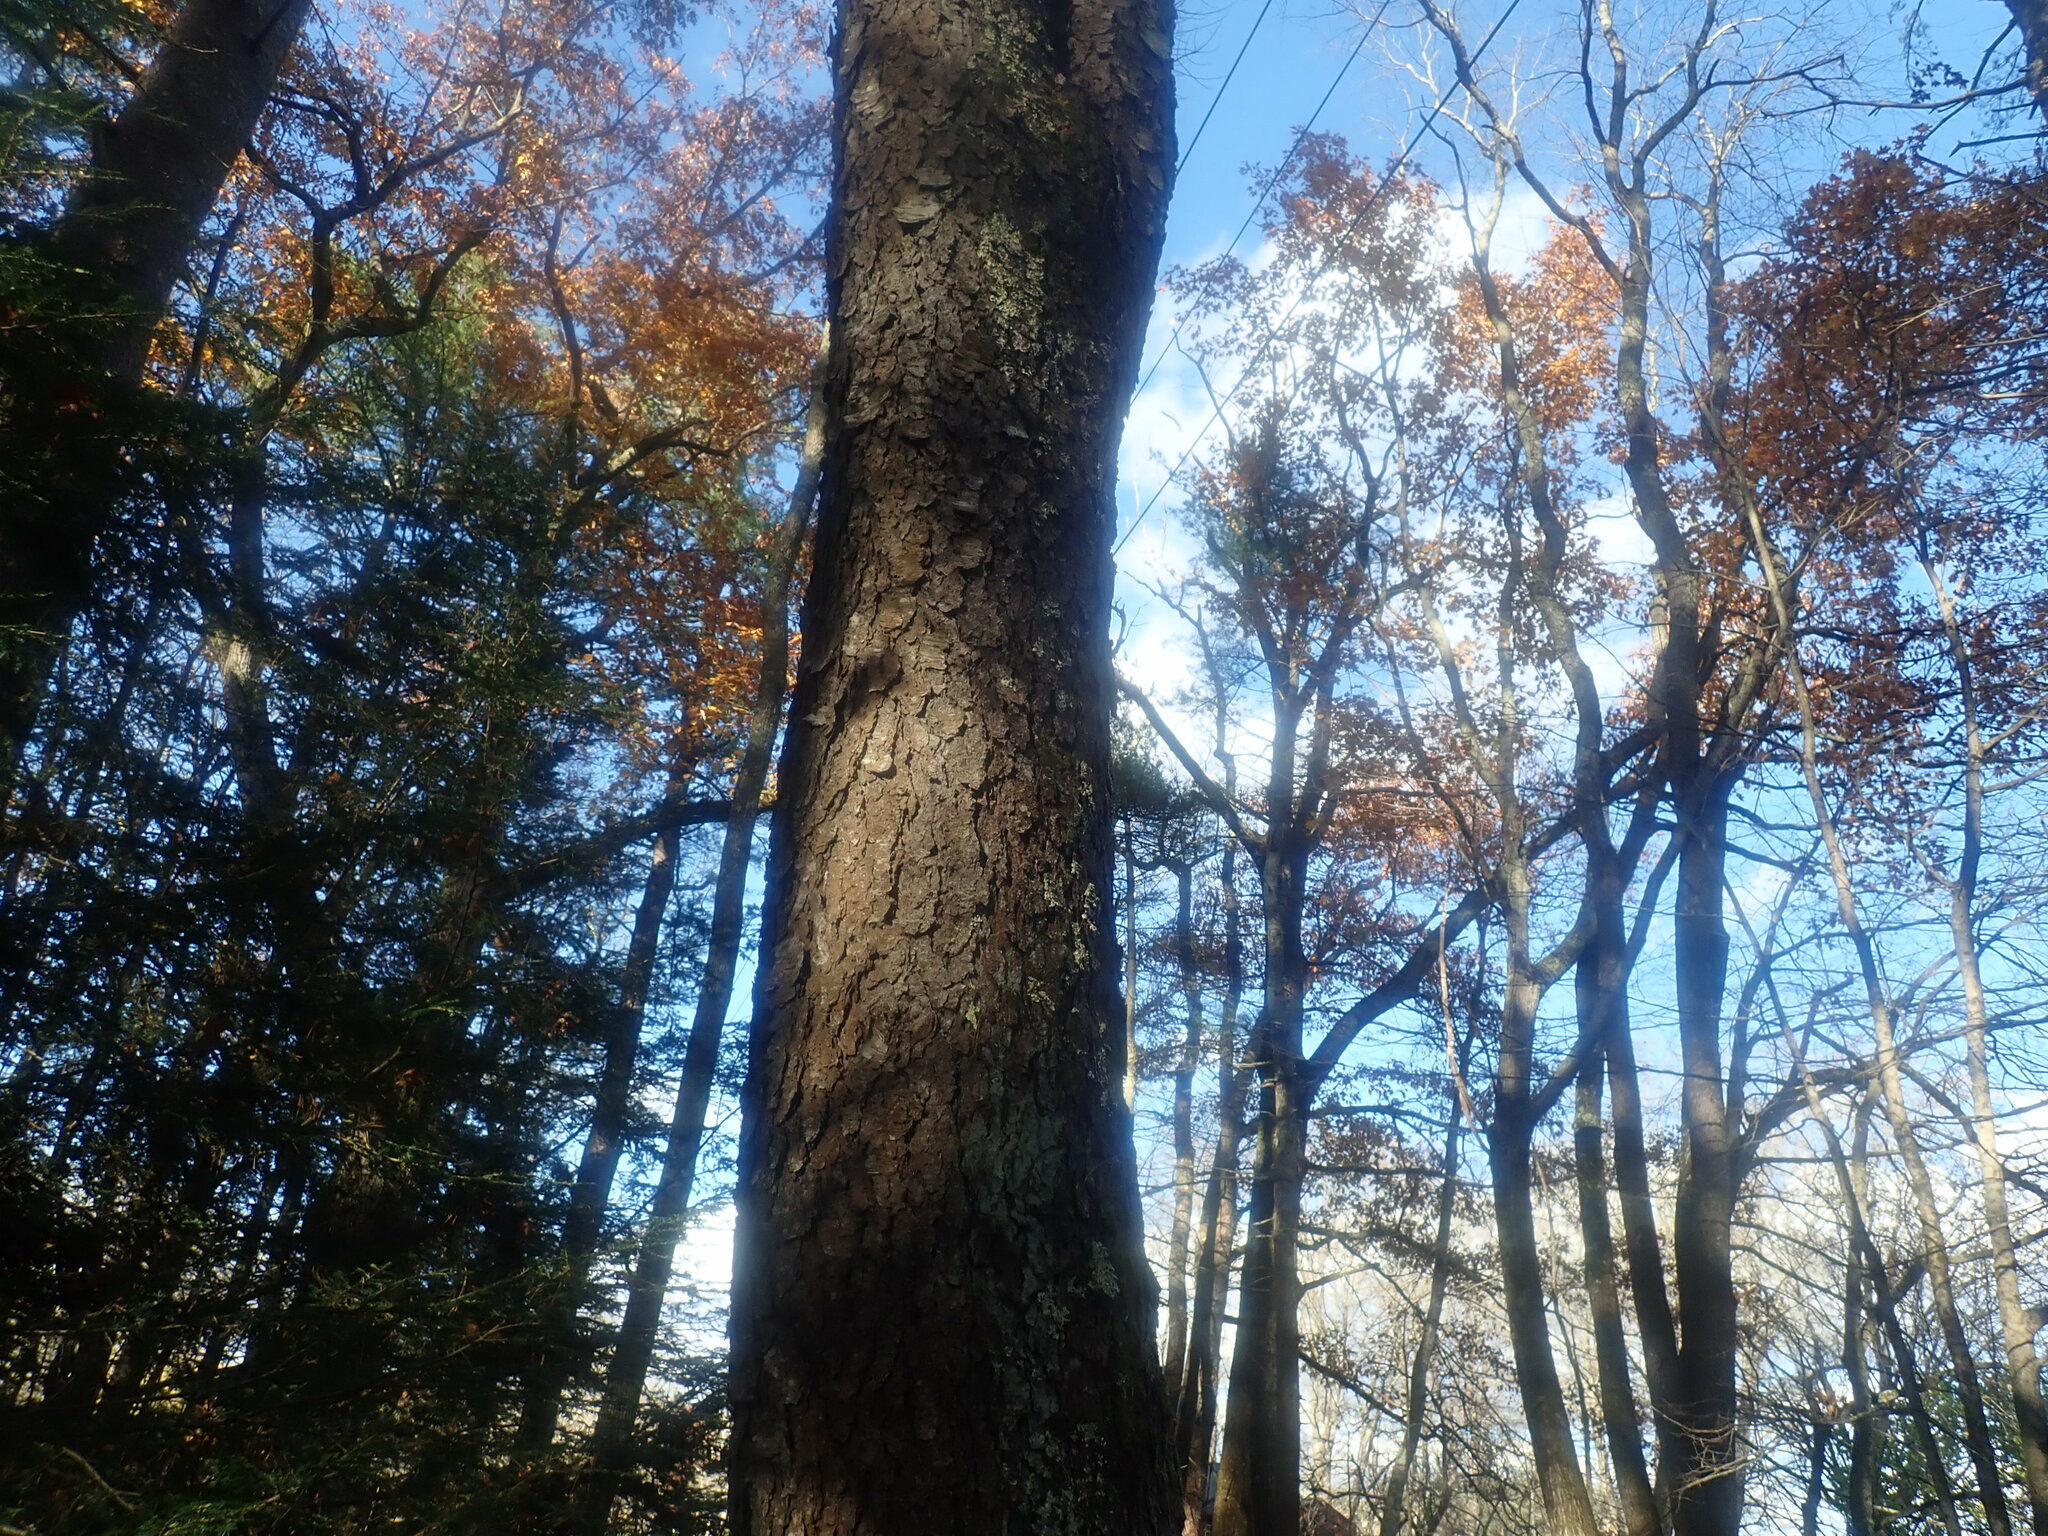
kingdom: Plantae
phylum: Tracheophyta
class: Magnoliopsida
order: Rosales
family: Rosaceae
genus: Prunus
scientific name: Prunus serotina
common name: Black cherry
